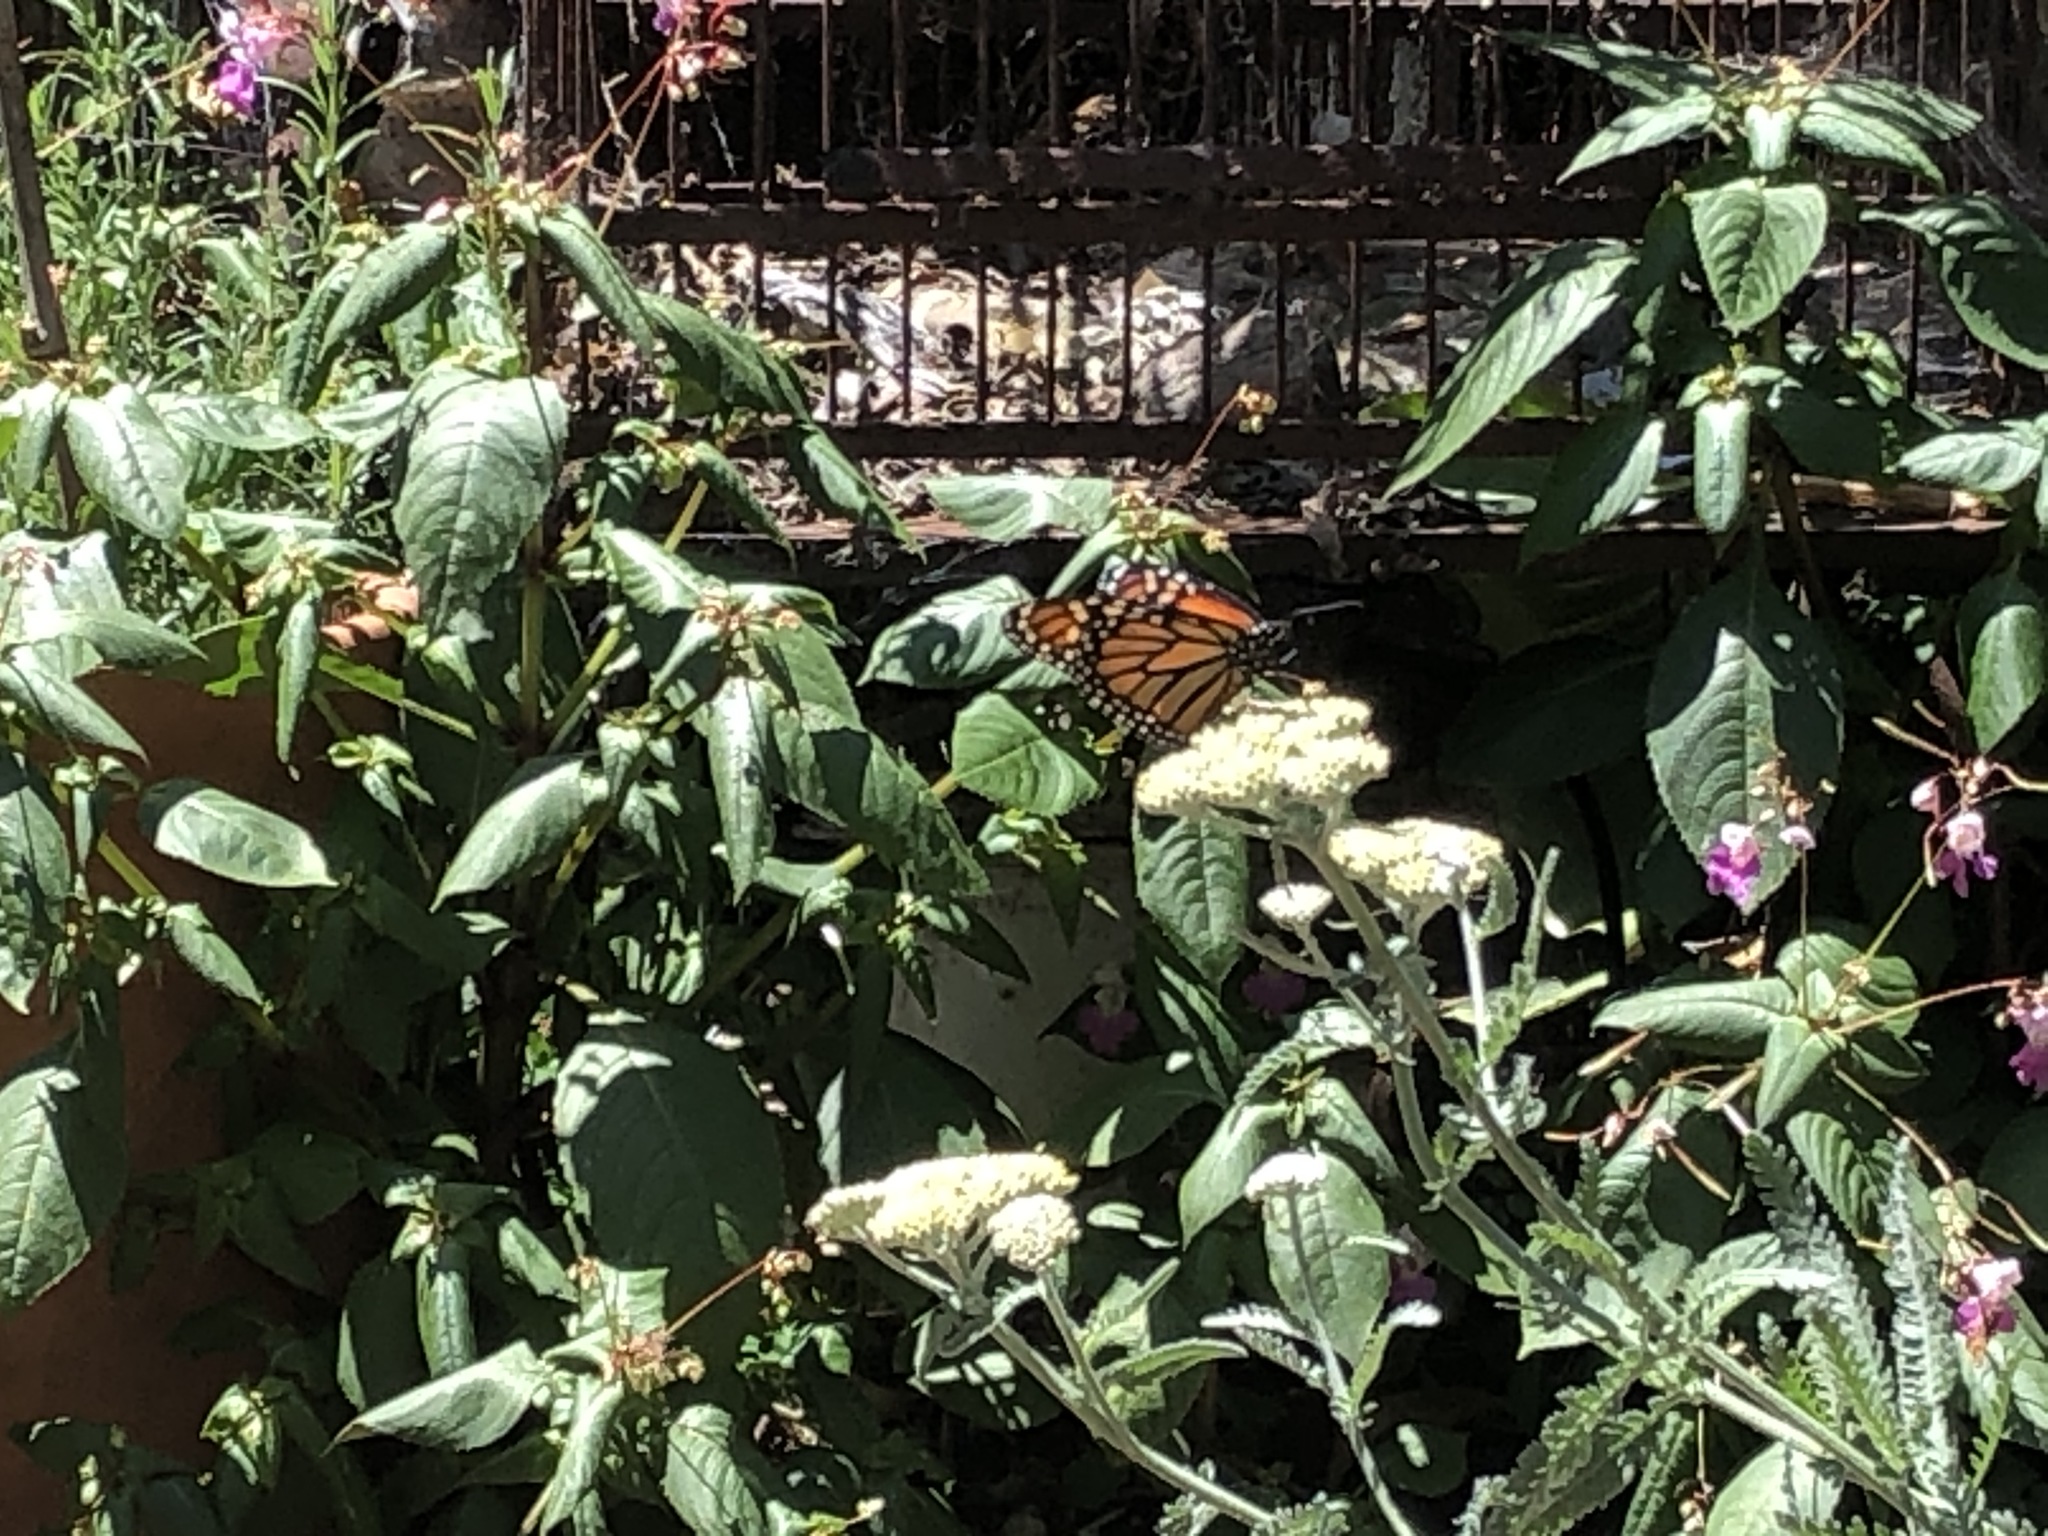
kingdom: Animalia
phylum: Arthropoda
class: Insecta
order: Lepidoptera
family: Nymphalidae
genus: Danaus
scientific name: Danaus plexippus
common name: Monarch
